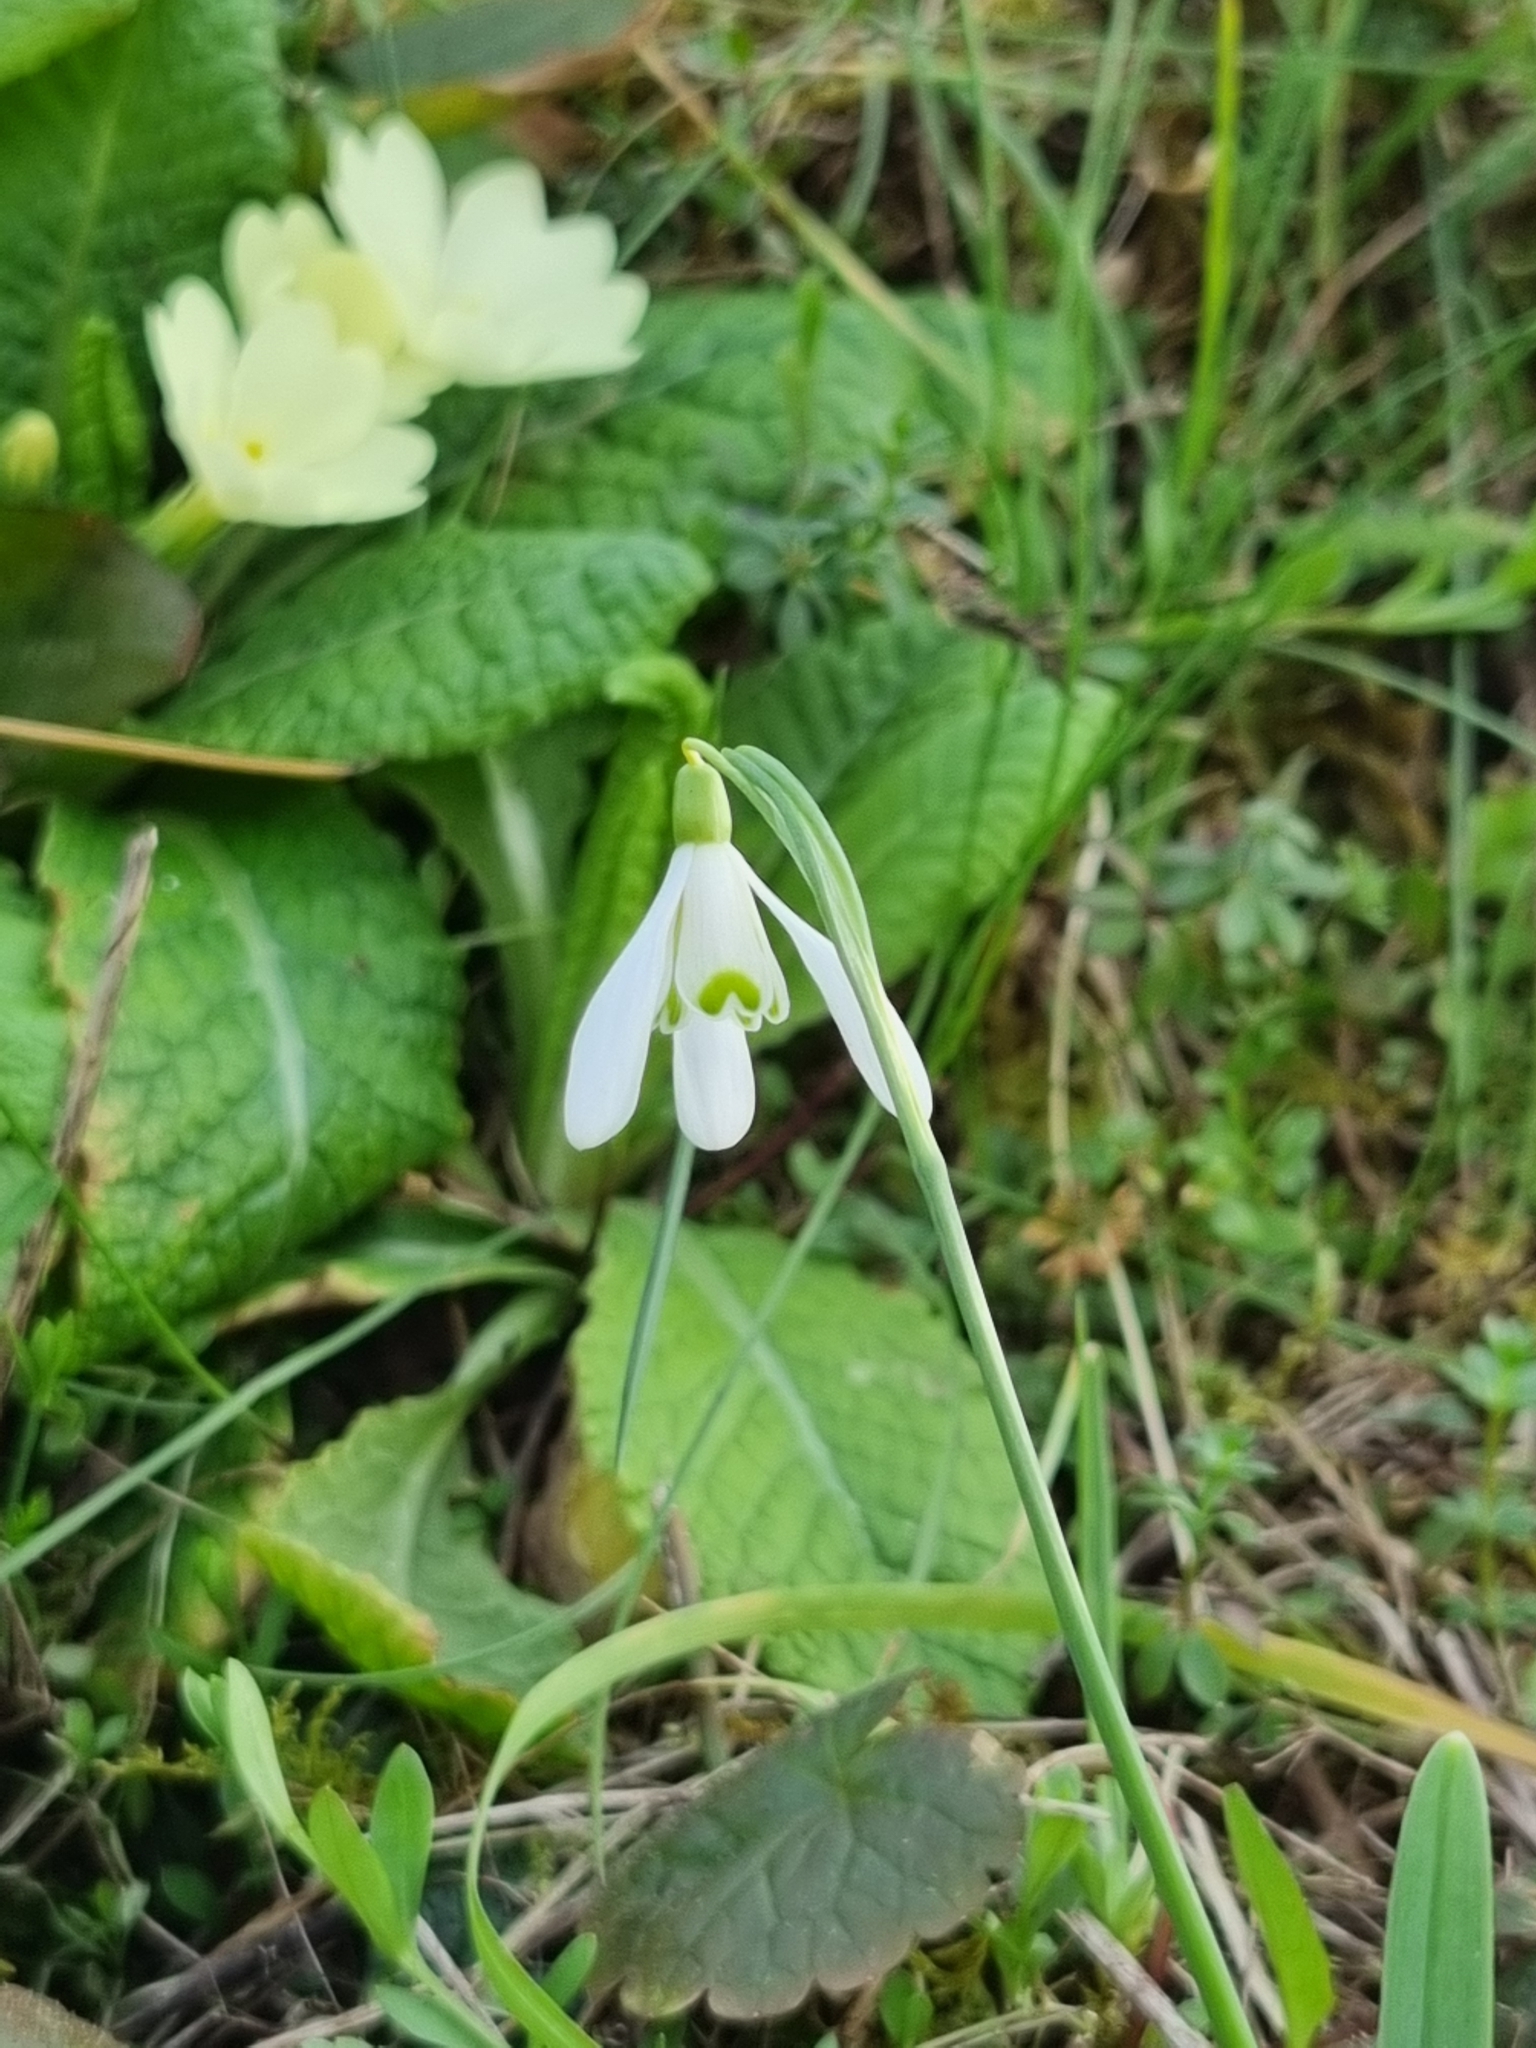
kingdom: Plantae
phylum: Tracheophyta
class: Liliopsida
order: Asparagales
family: Amaryllidaceae
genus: Galanthus
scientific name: Galanthus nivalis
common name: Snowdrop
